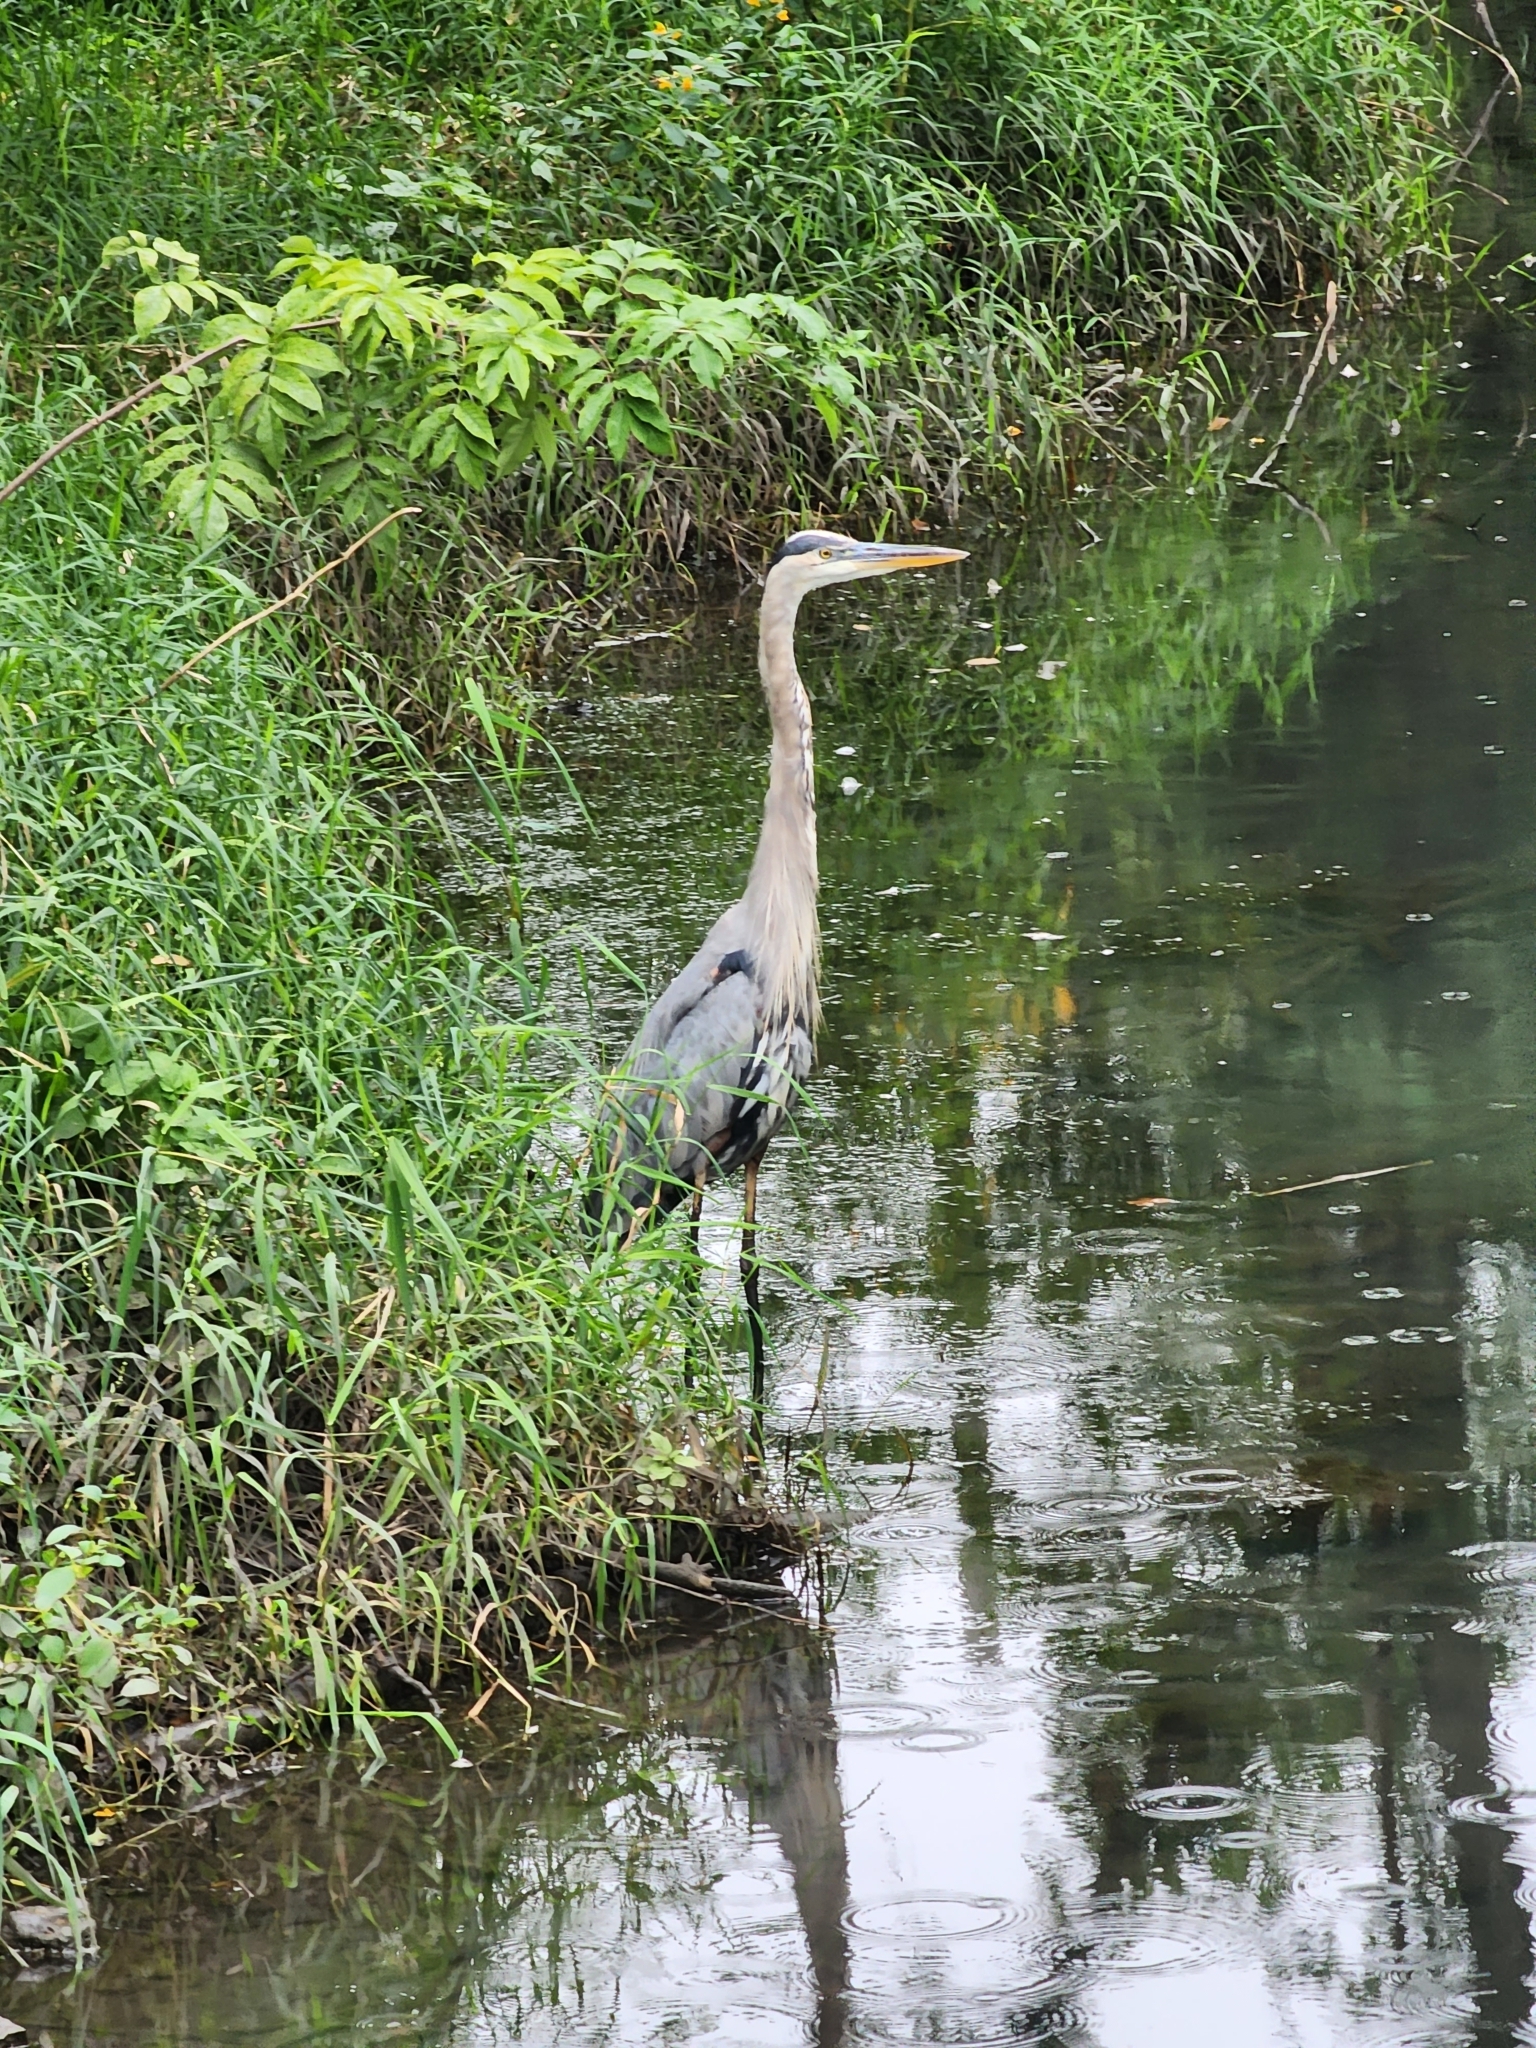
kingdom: Animalia
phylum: Chordata
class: Aves
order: Pelecaniformes
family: Ardeidae
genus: Ardea
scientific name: Ardea herodias
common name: Great blue heron
